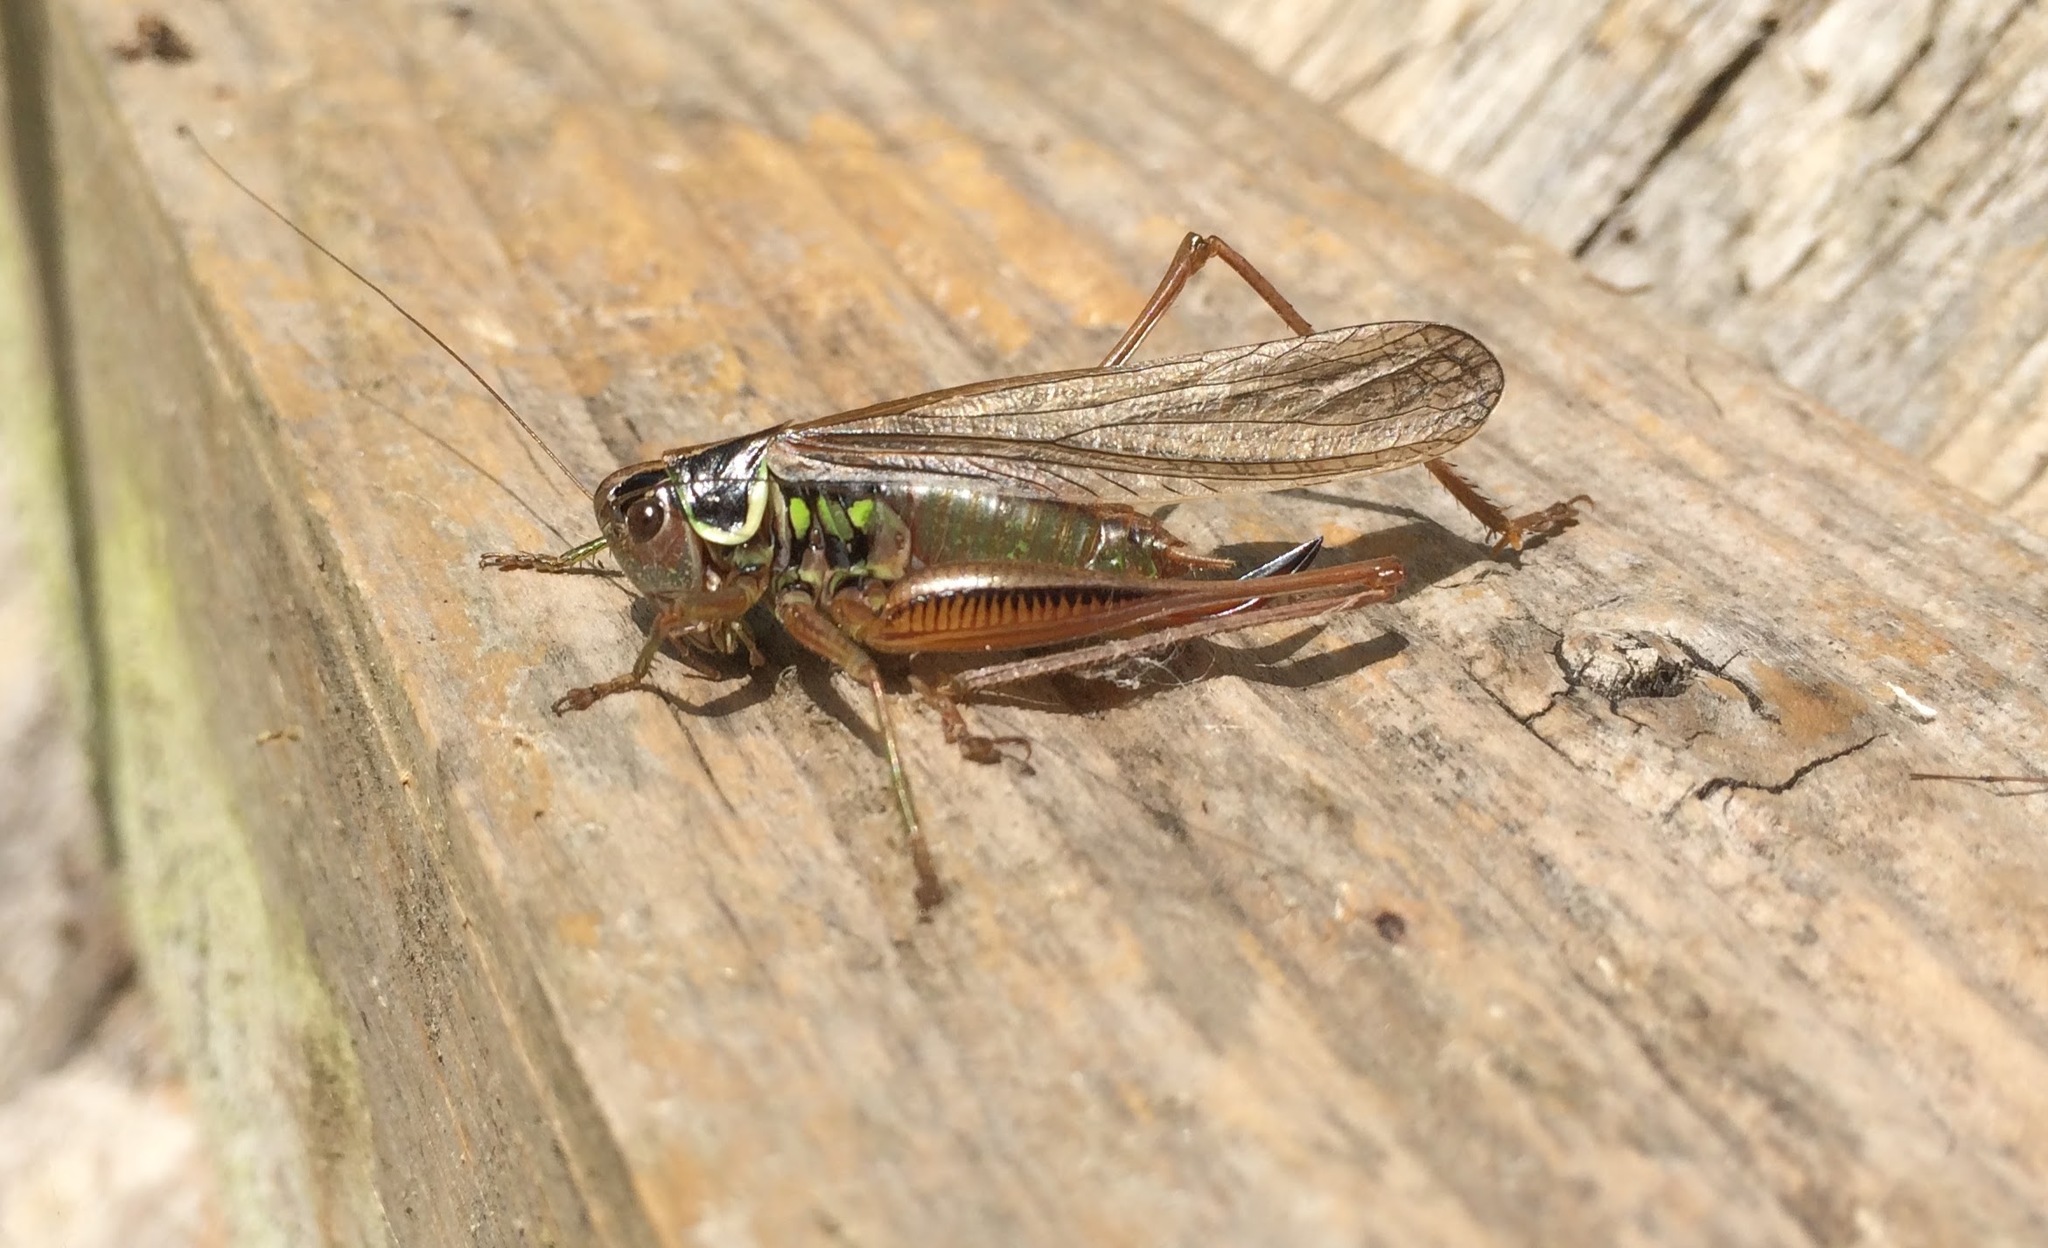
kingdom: Animalia
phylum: Arthropoda
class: Insecta
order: Orthoptera
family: Tettigoniidae
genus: Roeseliana
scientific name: Roeseliana roeselii
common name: Roesel's bush cricket
